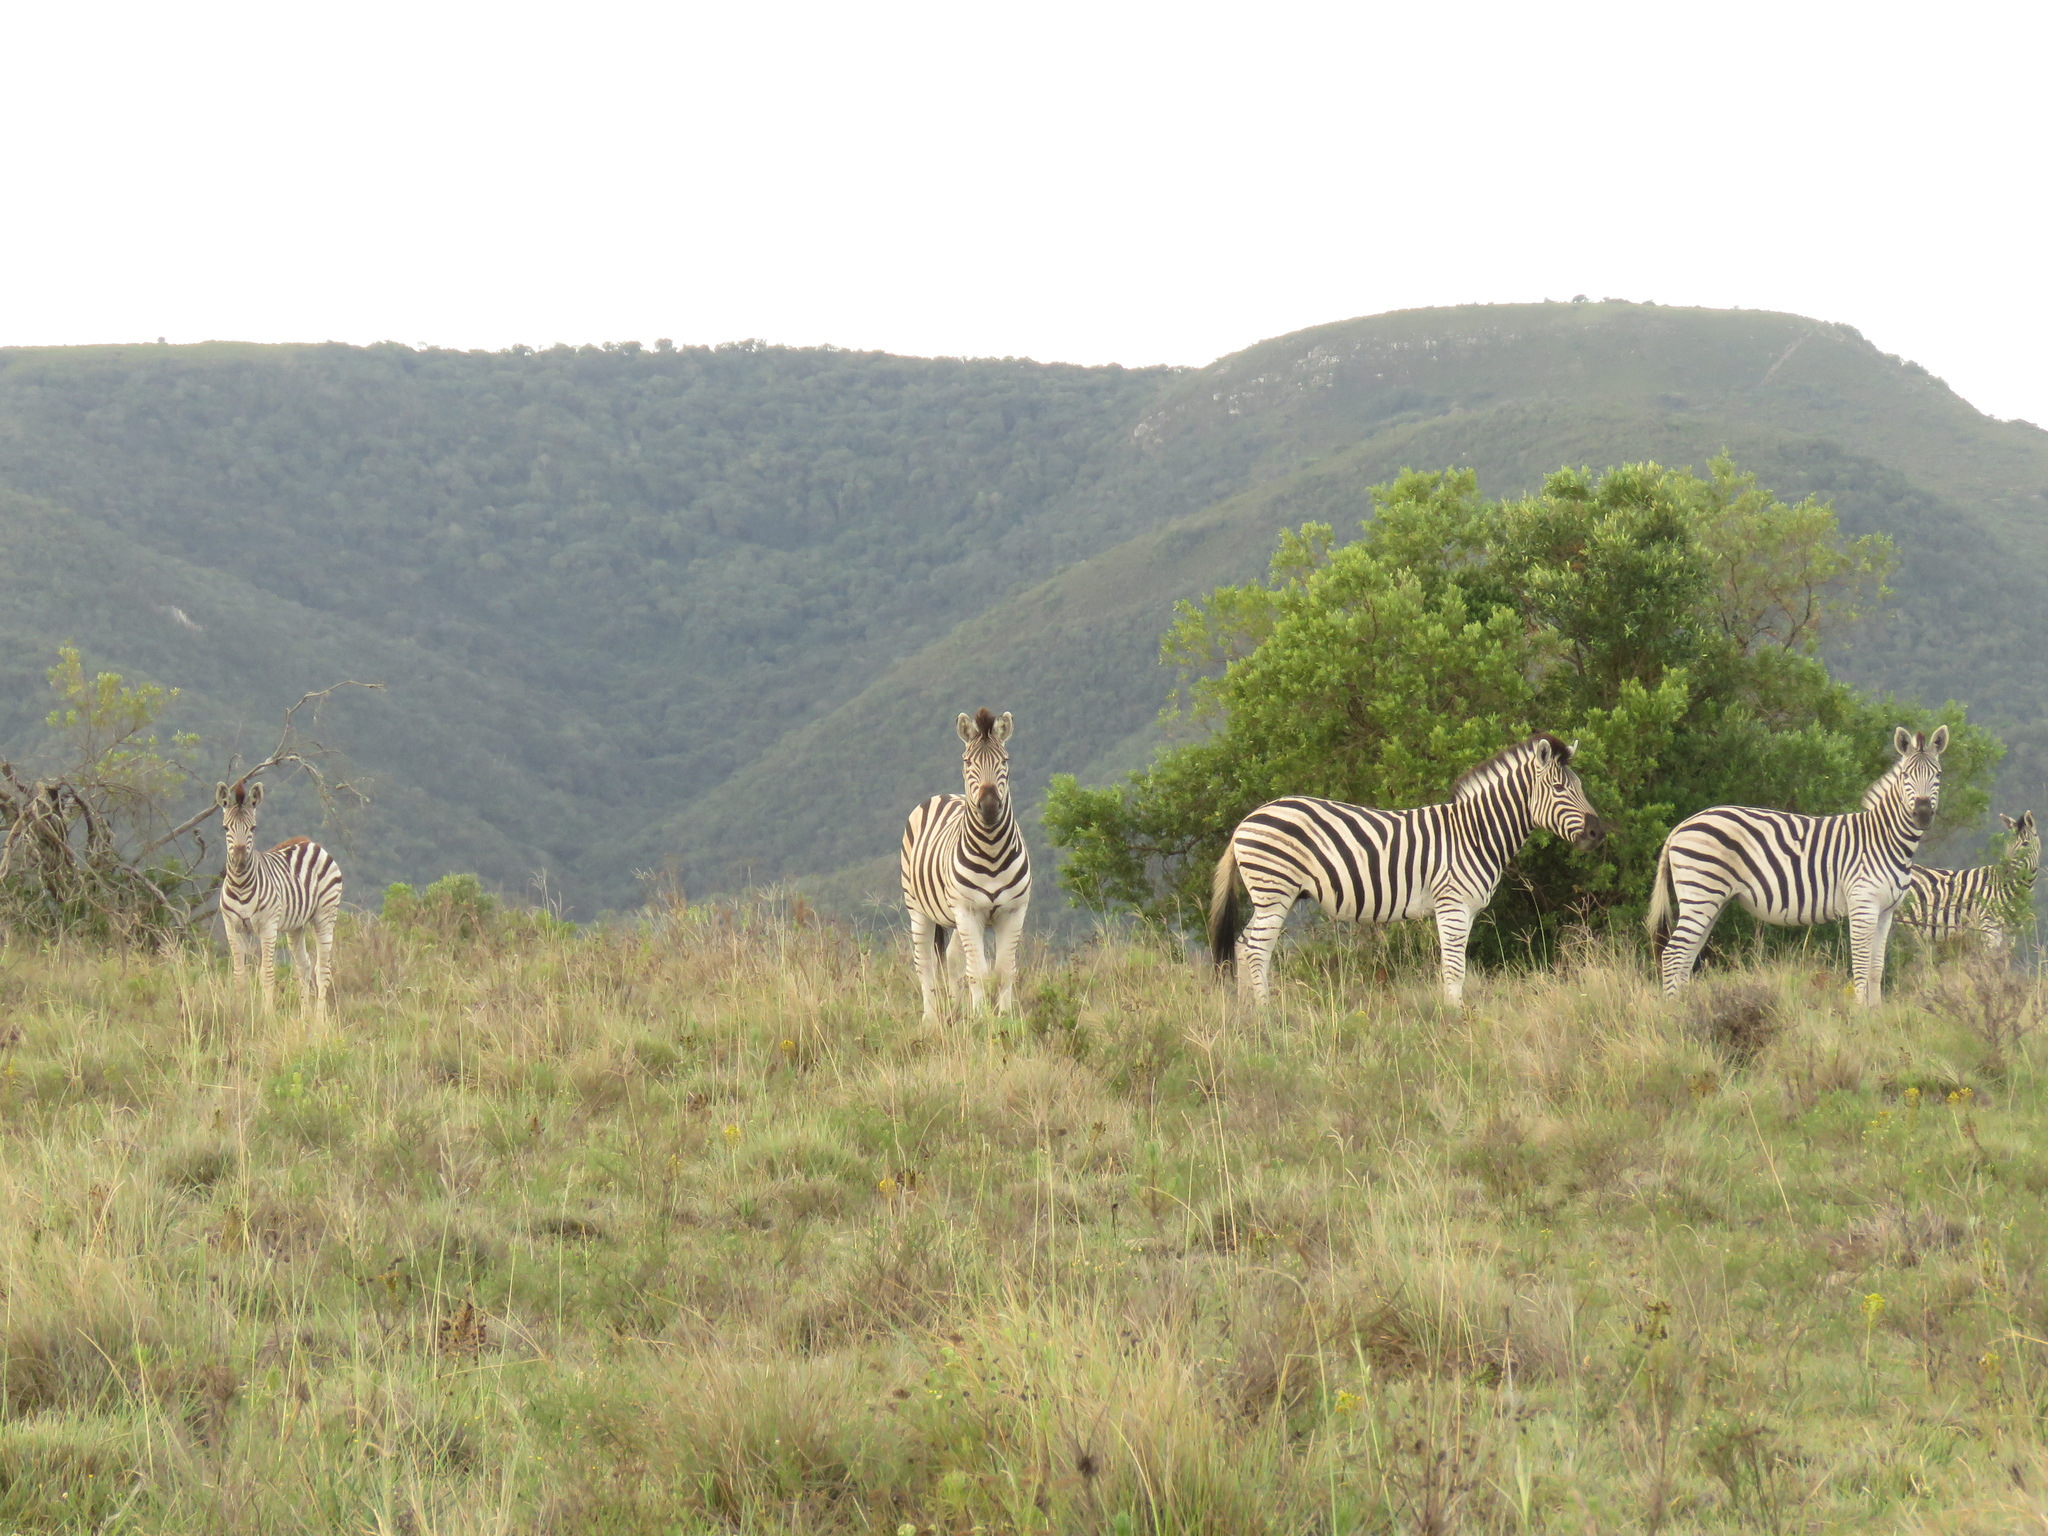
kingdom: Animalia
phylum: Chordata
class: Mammalia
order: Perissodactyla
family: Equidae
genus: Equus
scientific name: Equus quagga
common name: Plains zebra
